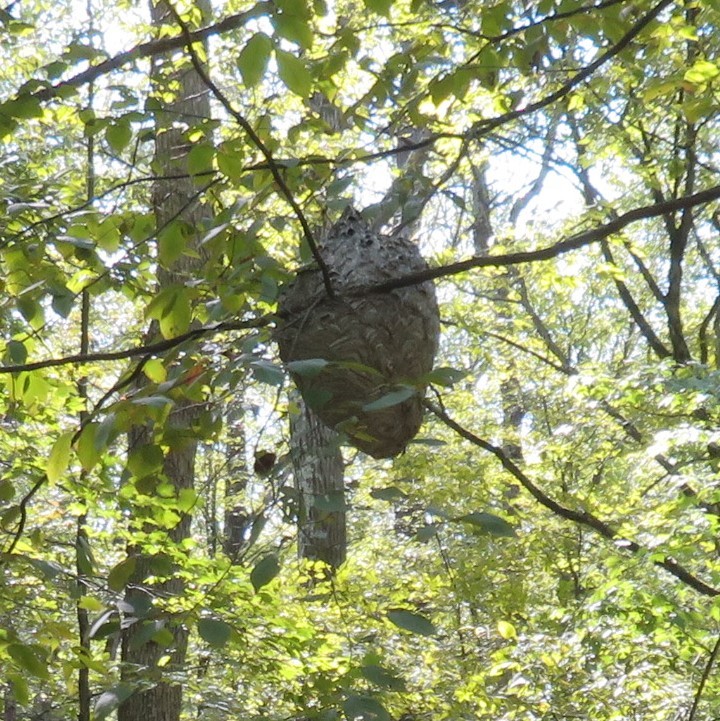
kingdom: Animalia
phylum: Arthropoda
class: Insecta
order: Hymenoptera
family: Vespidae
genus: Dolichovespula
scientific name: Dolichovespula maculata
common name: Bald-faced hornet
